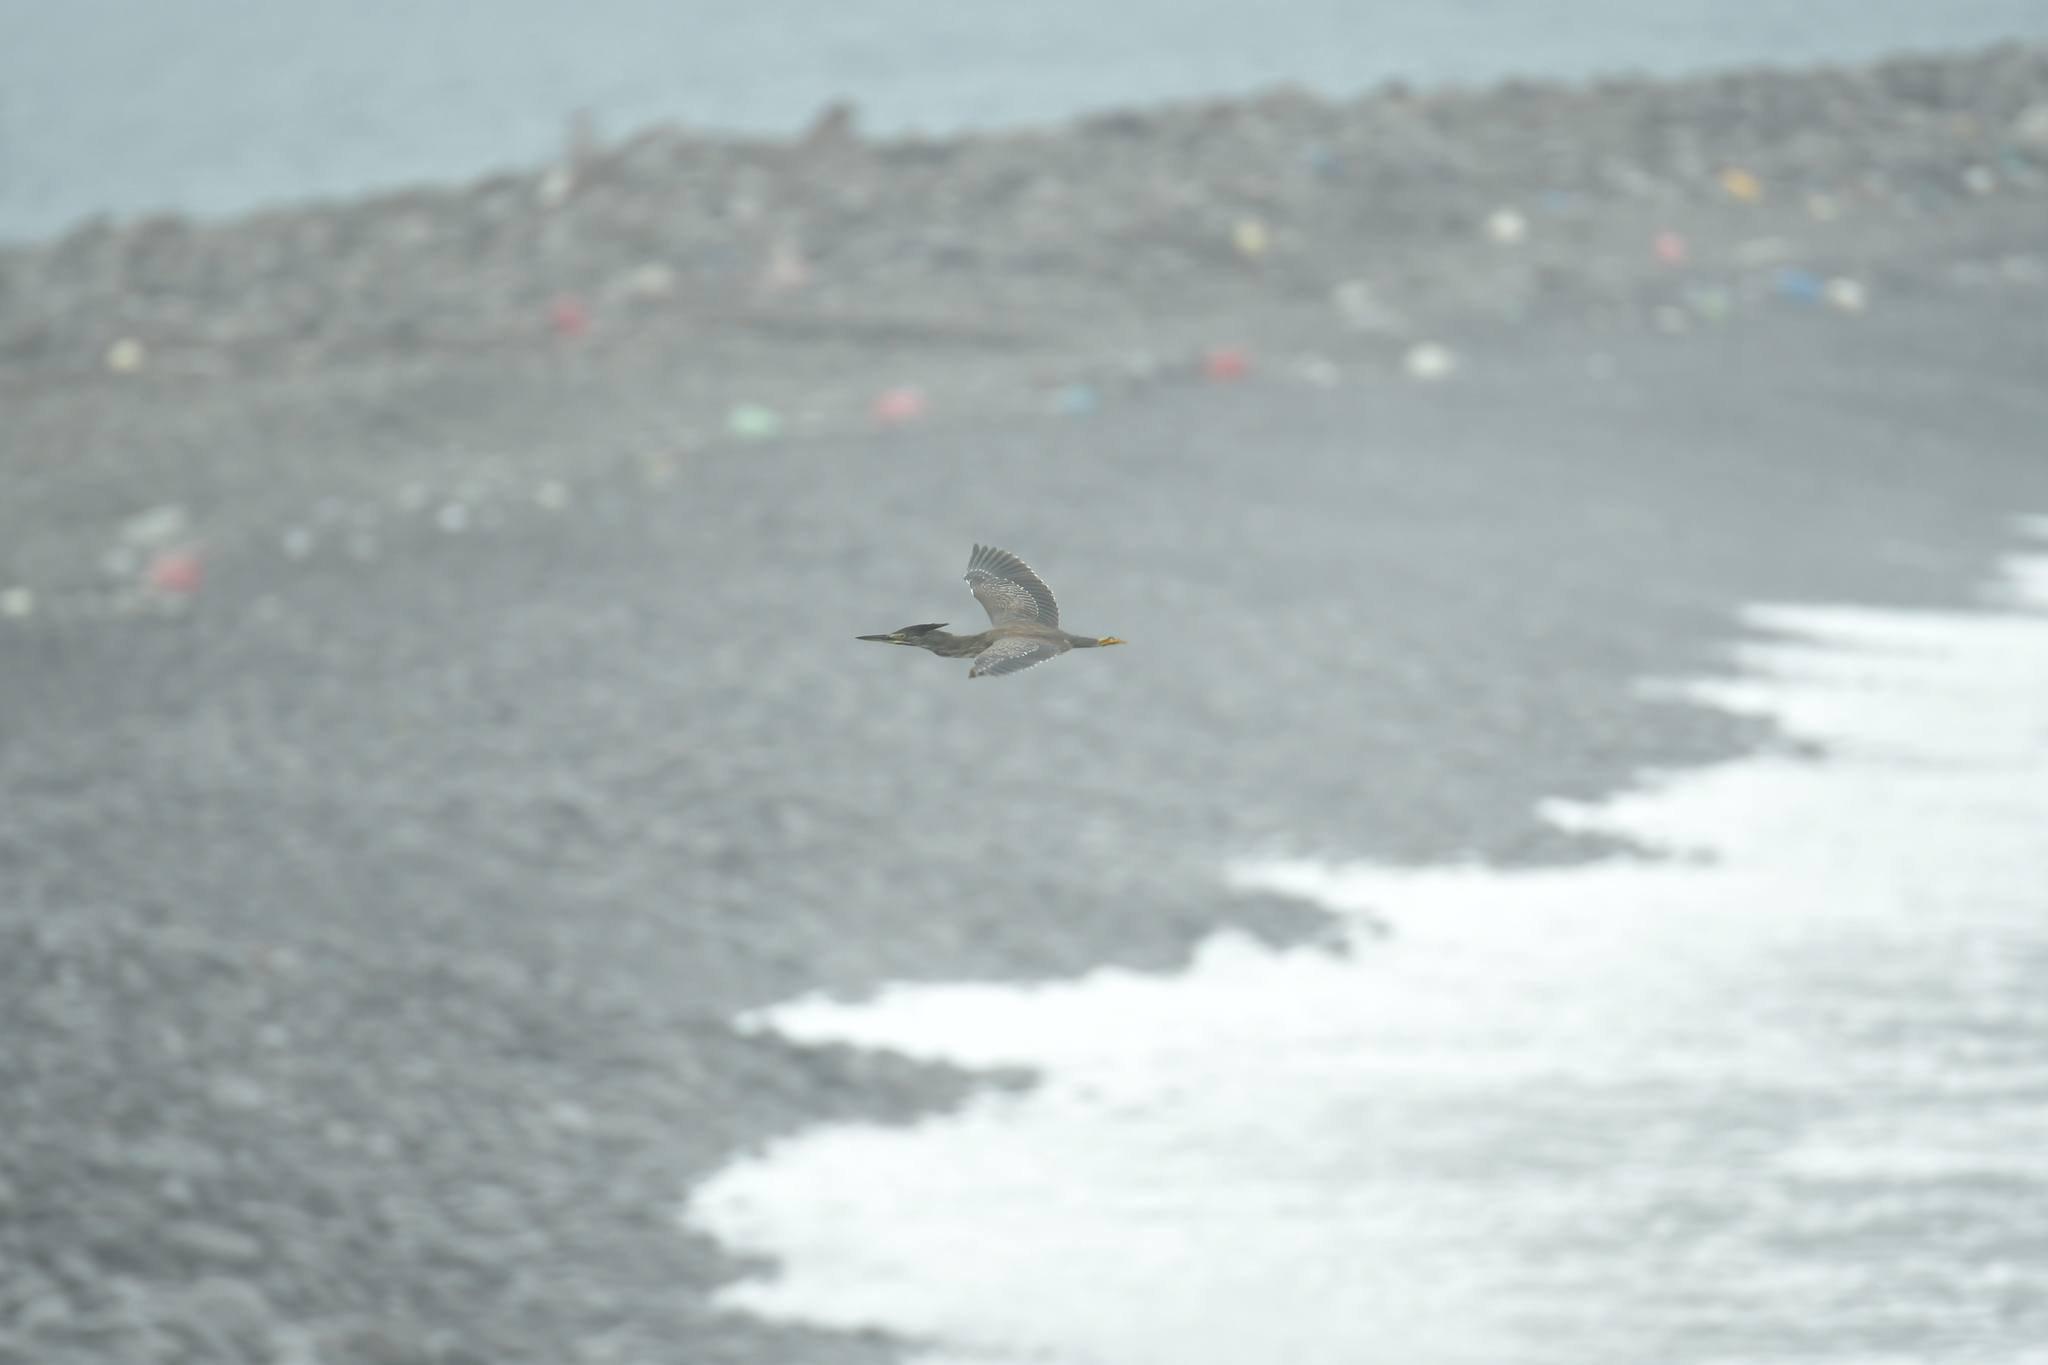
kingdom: Animalia
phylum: Chordata
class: Aves
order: Pelecaniformes
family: Ardeidae
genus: Butorides
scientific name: Butorides striata
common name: Striated heron
